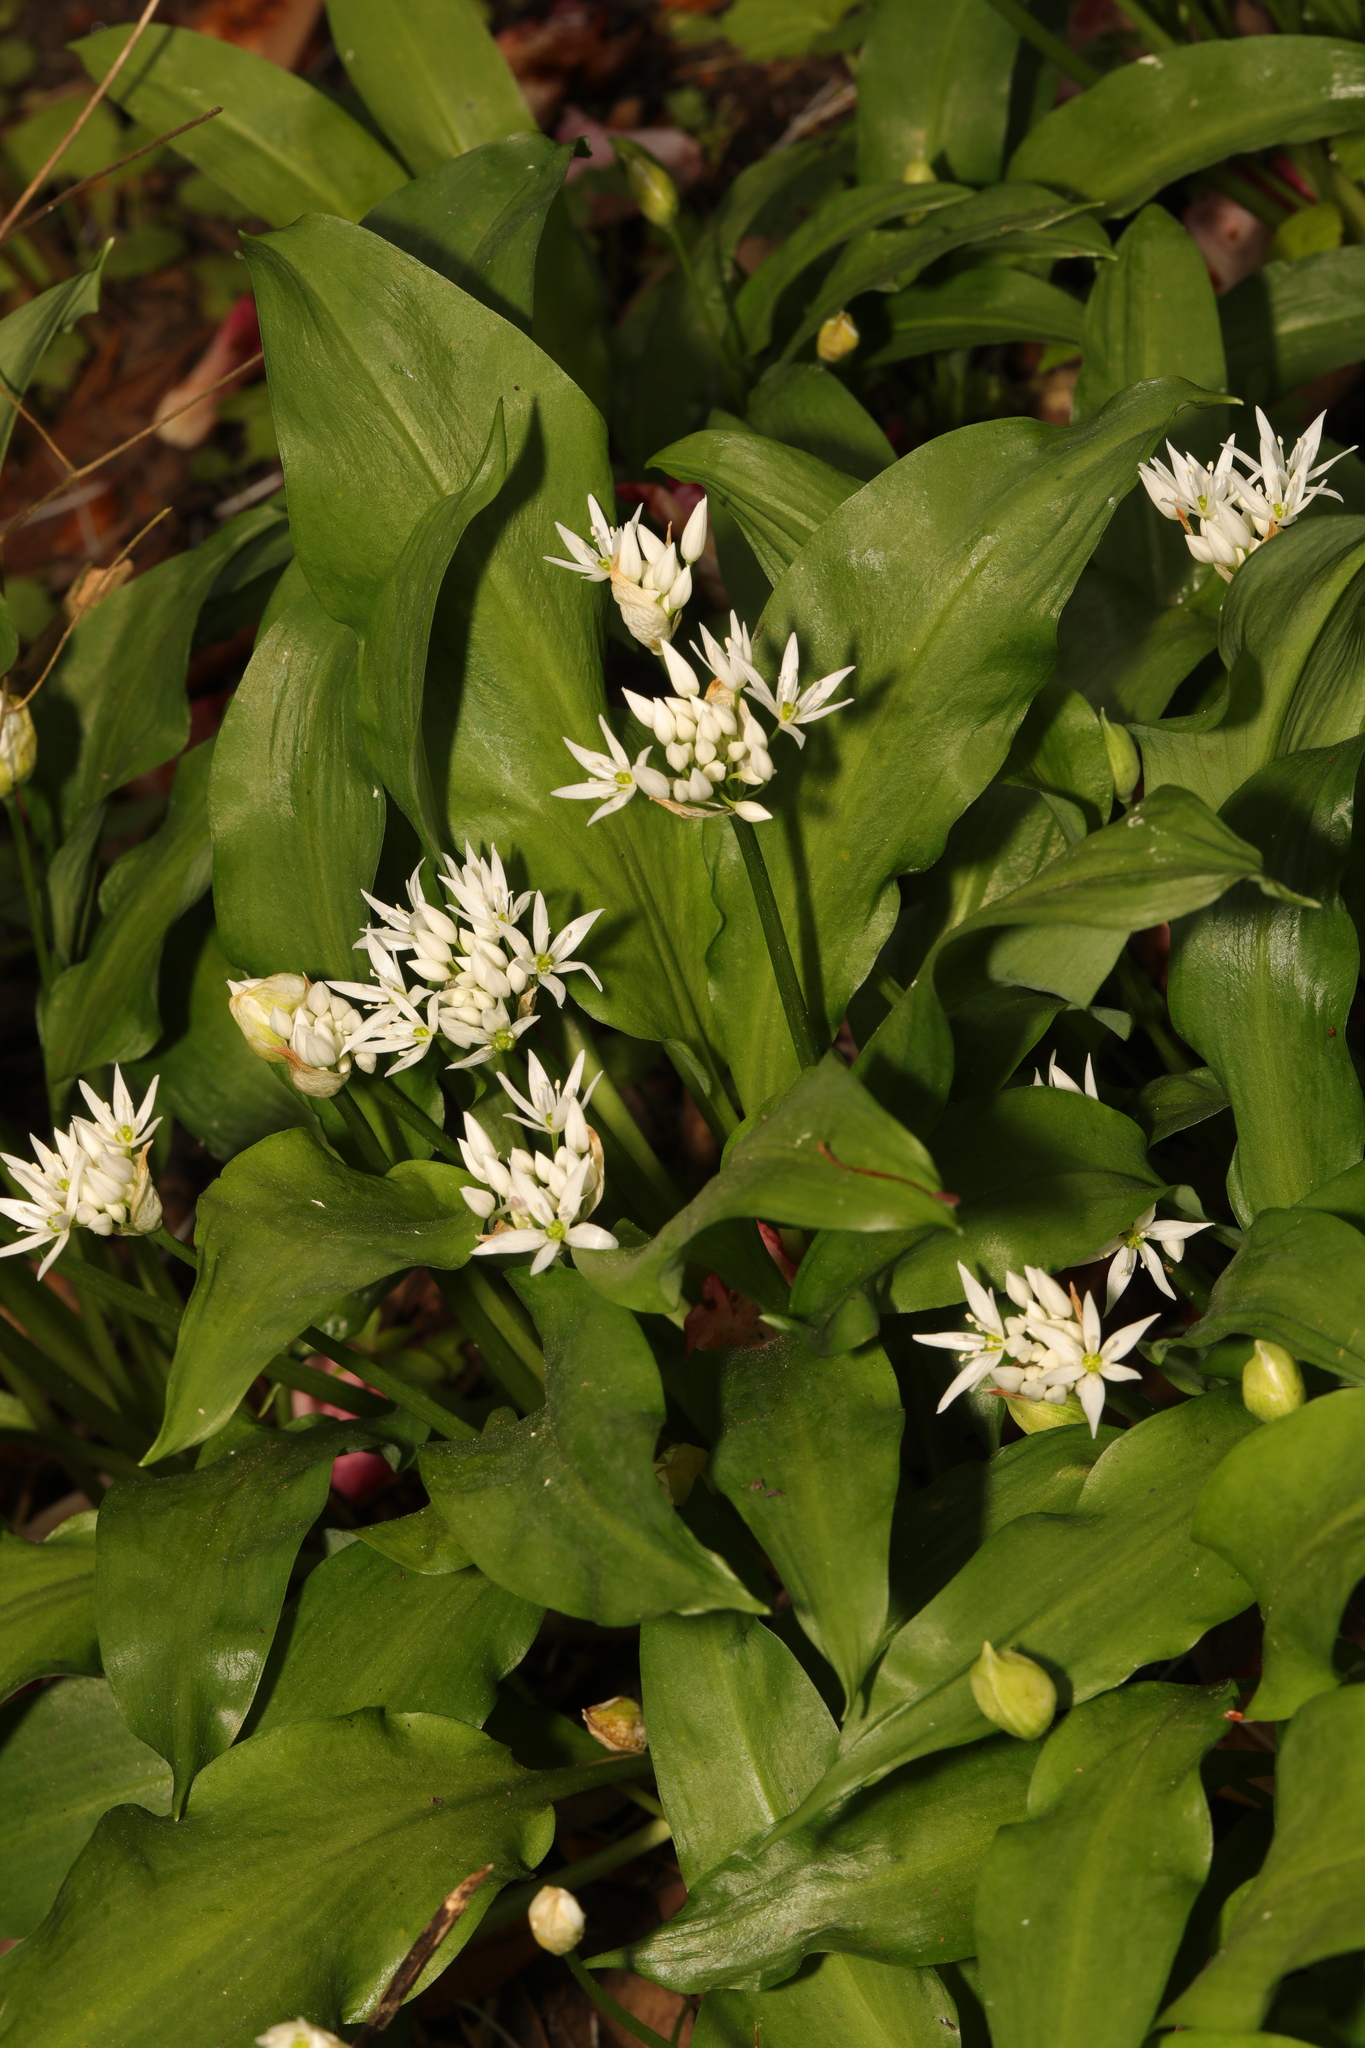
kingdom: Plantae
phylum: Tracheophyta
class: Liliopsida
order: Asparagales
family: Amaryllidaceae
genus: Allium
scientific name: Allium ursinum
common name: Ramsons
